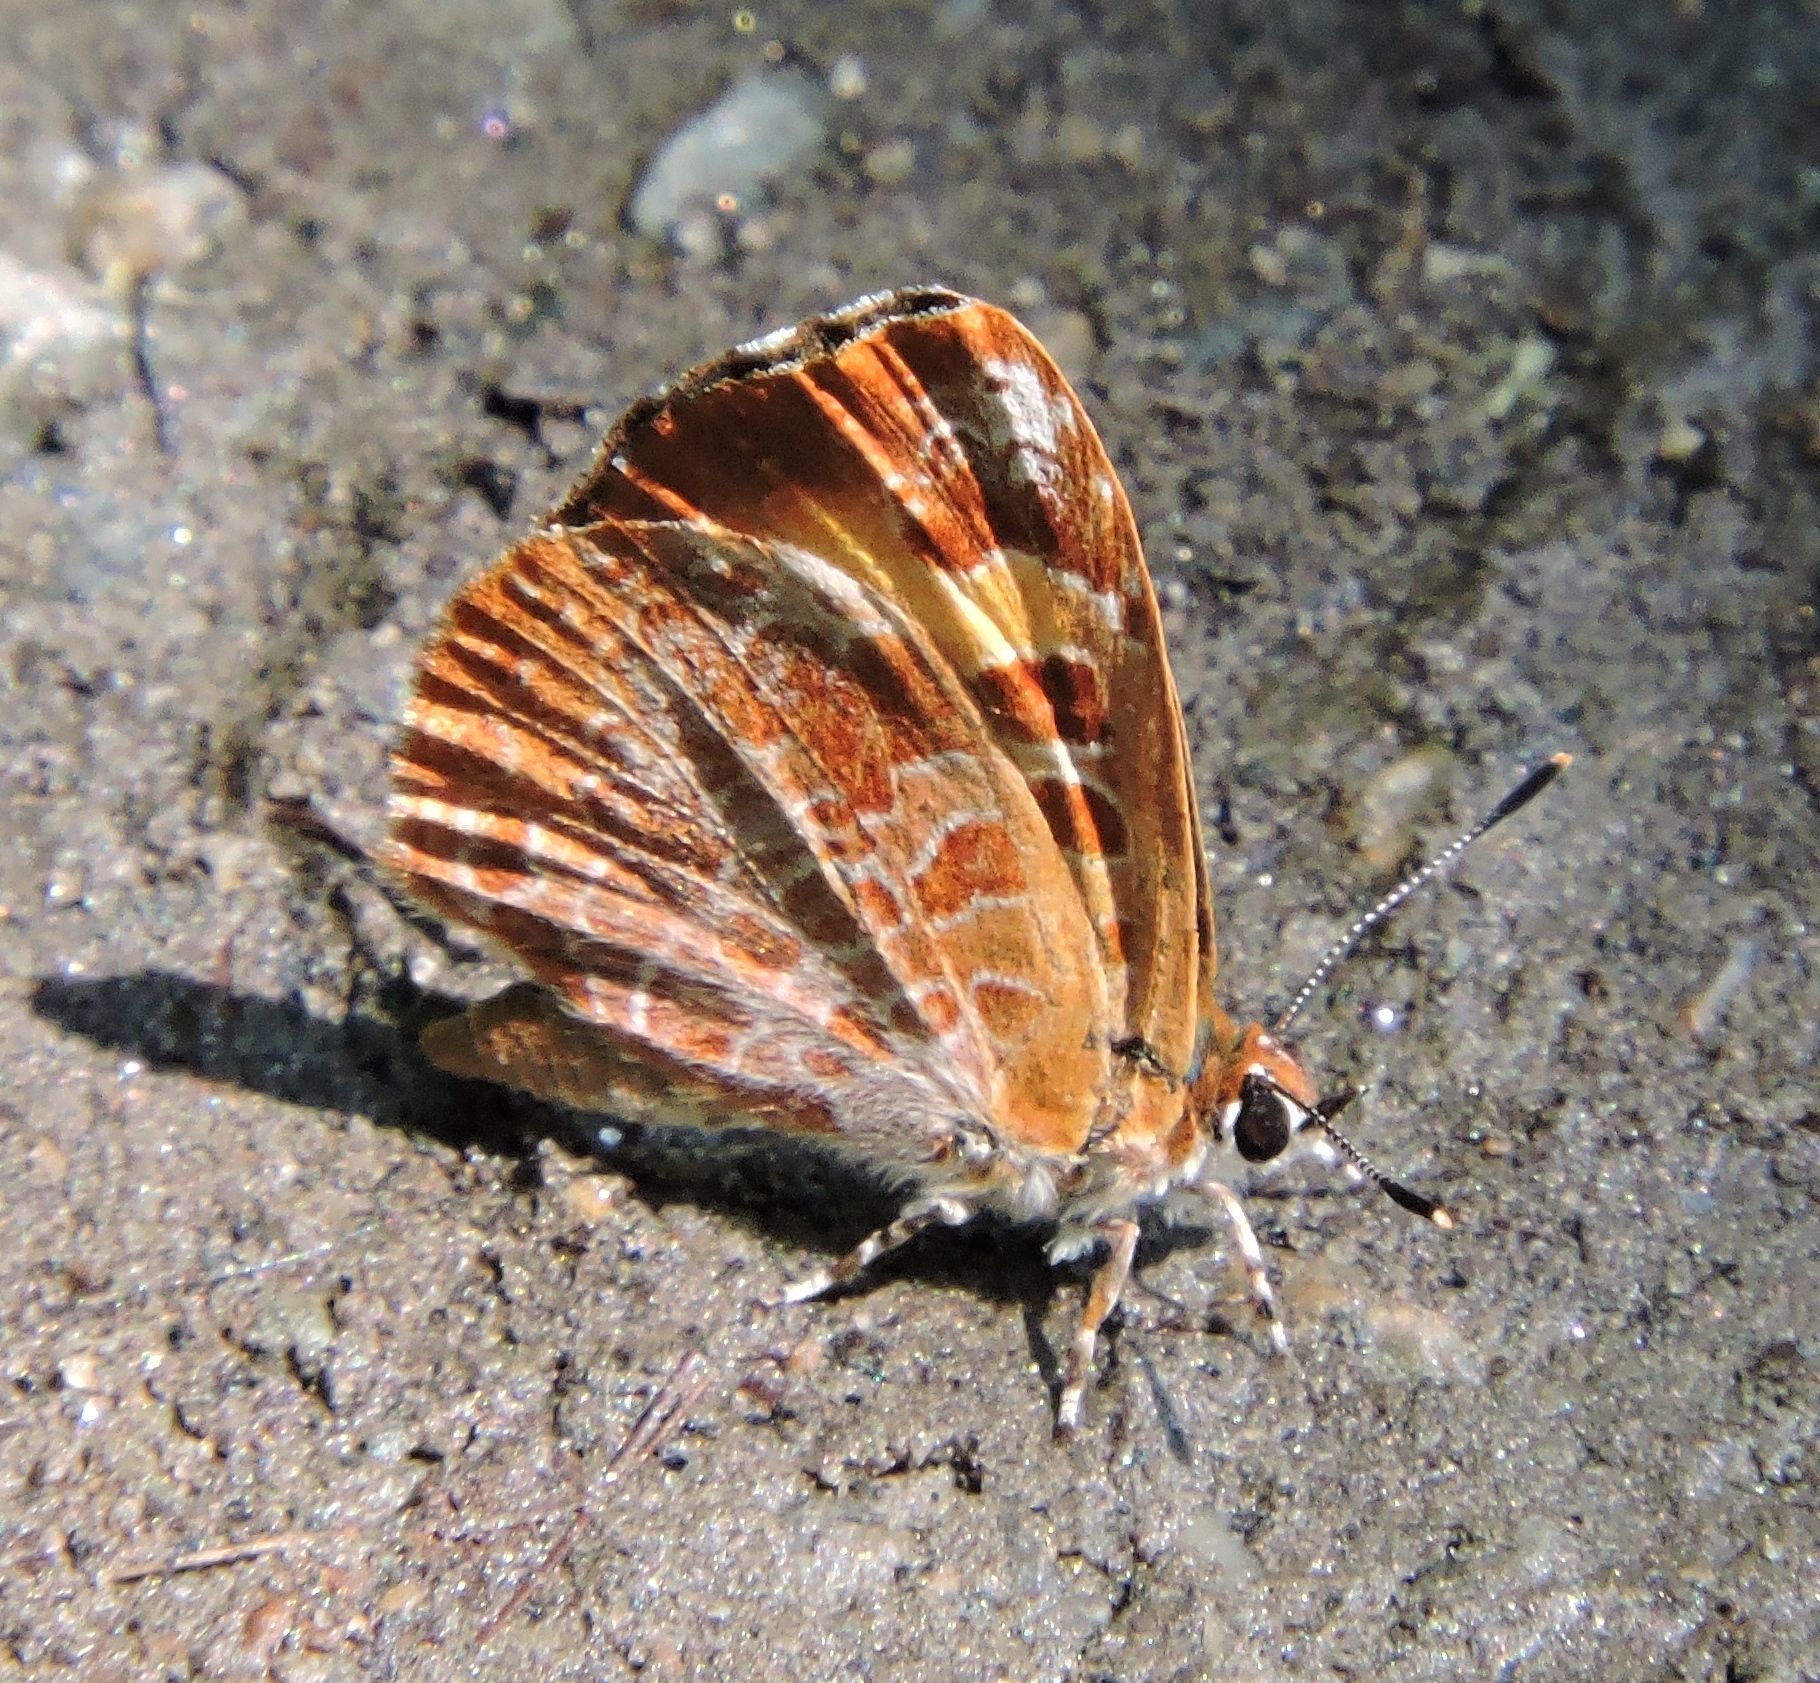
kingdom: Animalia
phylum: Arthropoda
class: Insecta
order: Lepidoptera
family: Lycaenidae
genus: Feniseca
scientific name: Feniseca tarquinius
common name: Harvester
